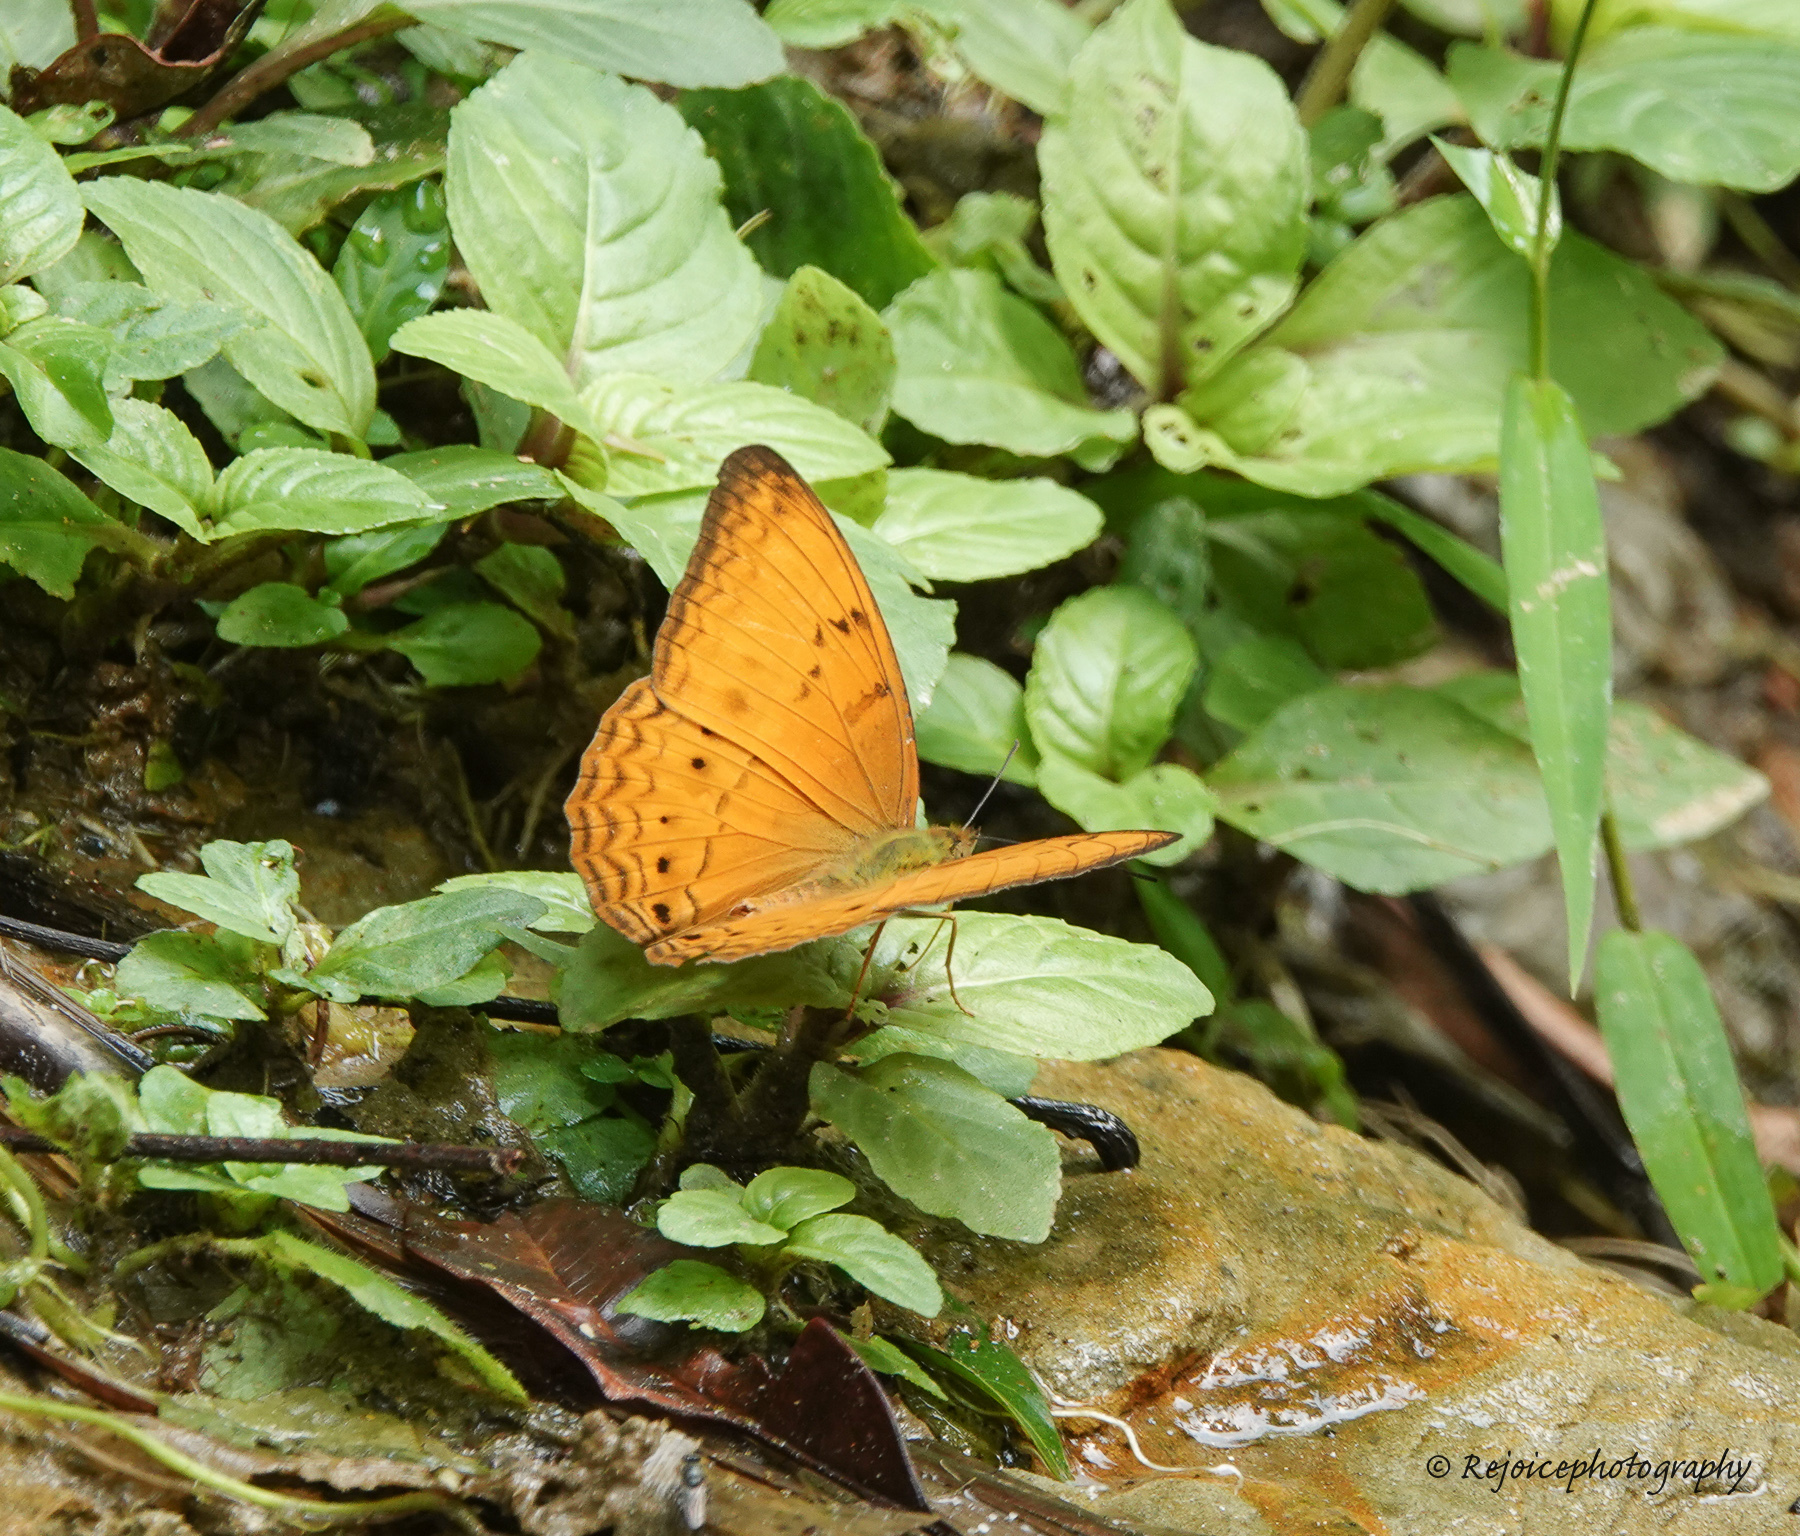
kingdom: Animalia
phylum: Arthropoda
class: Insecta
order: Lepidoptera
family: Nymphalidae
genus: Cirrochroa
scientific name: Cirrochroa tyche
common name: Common yeoman
